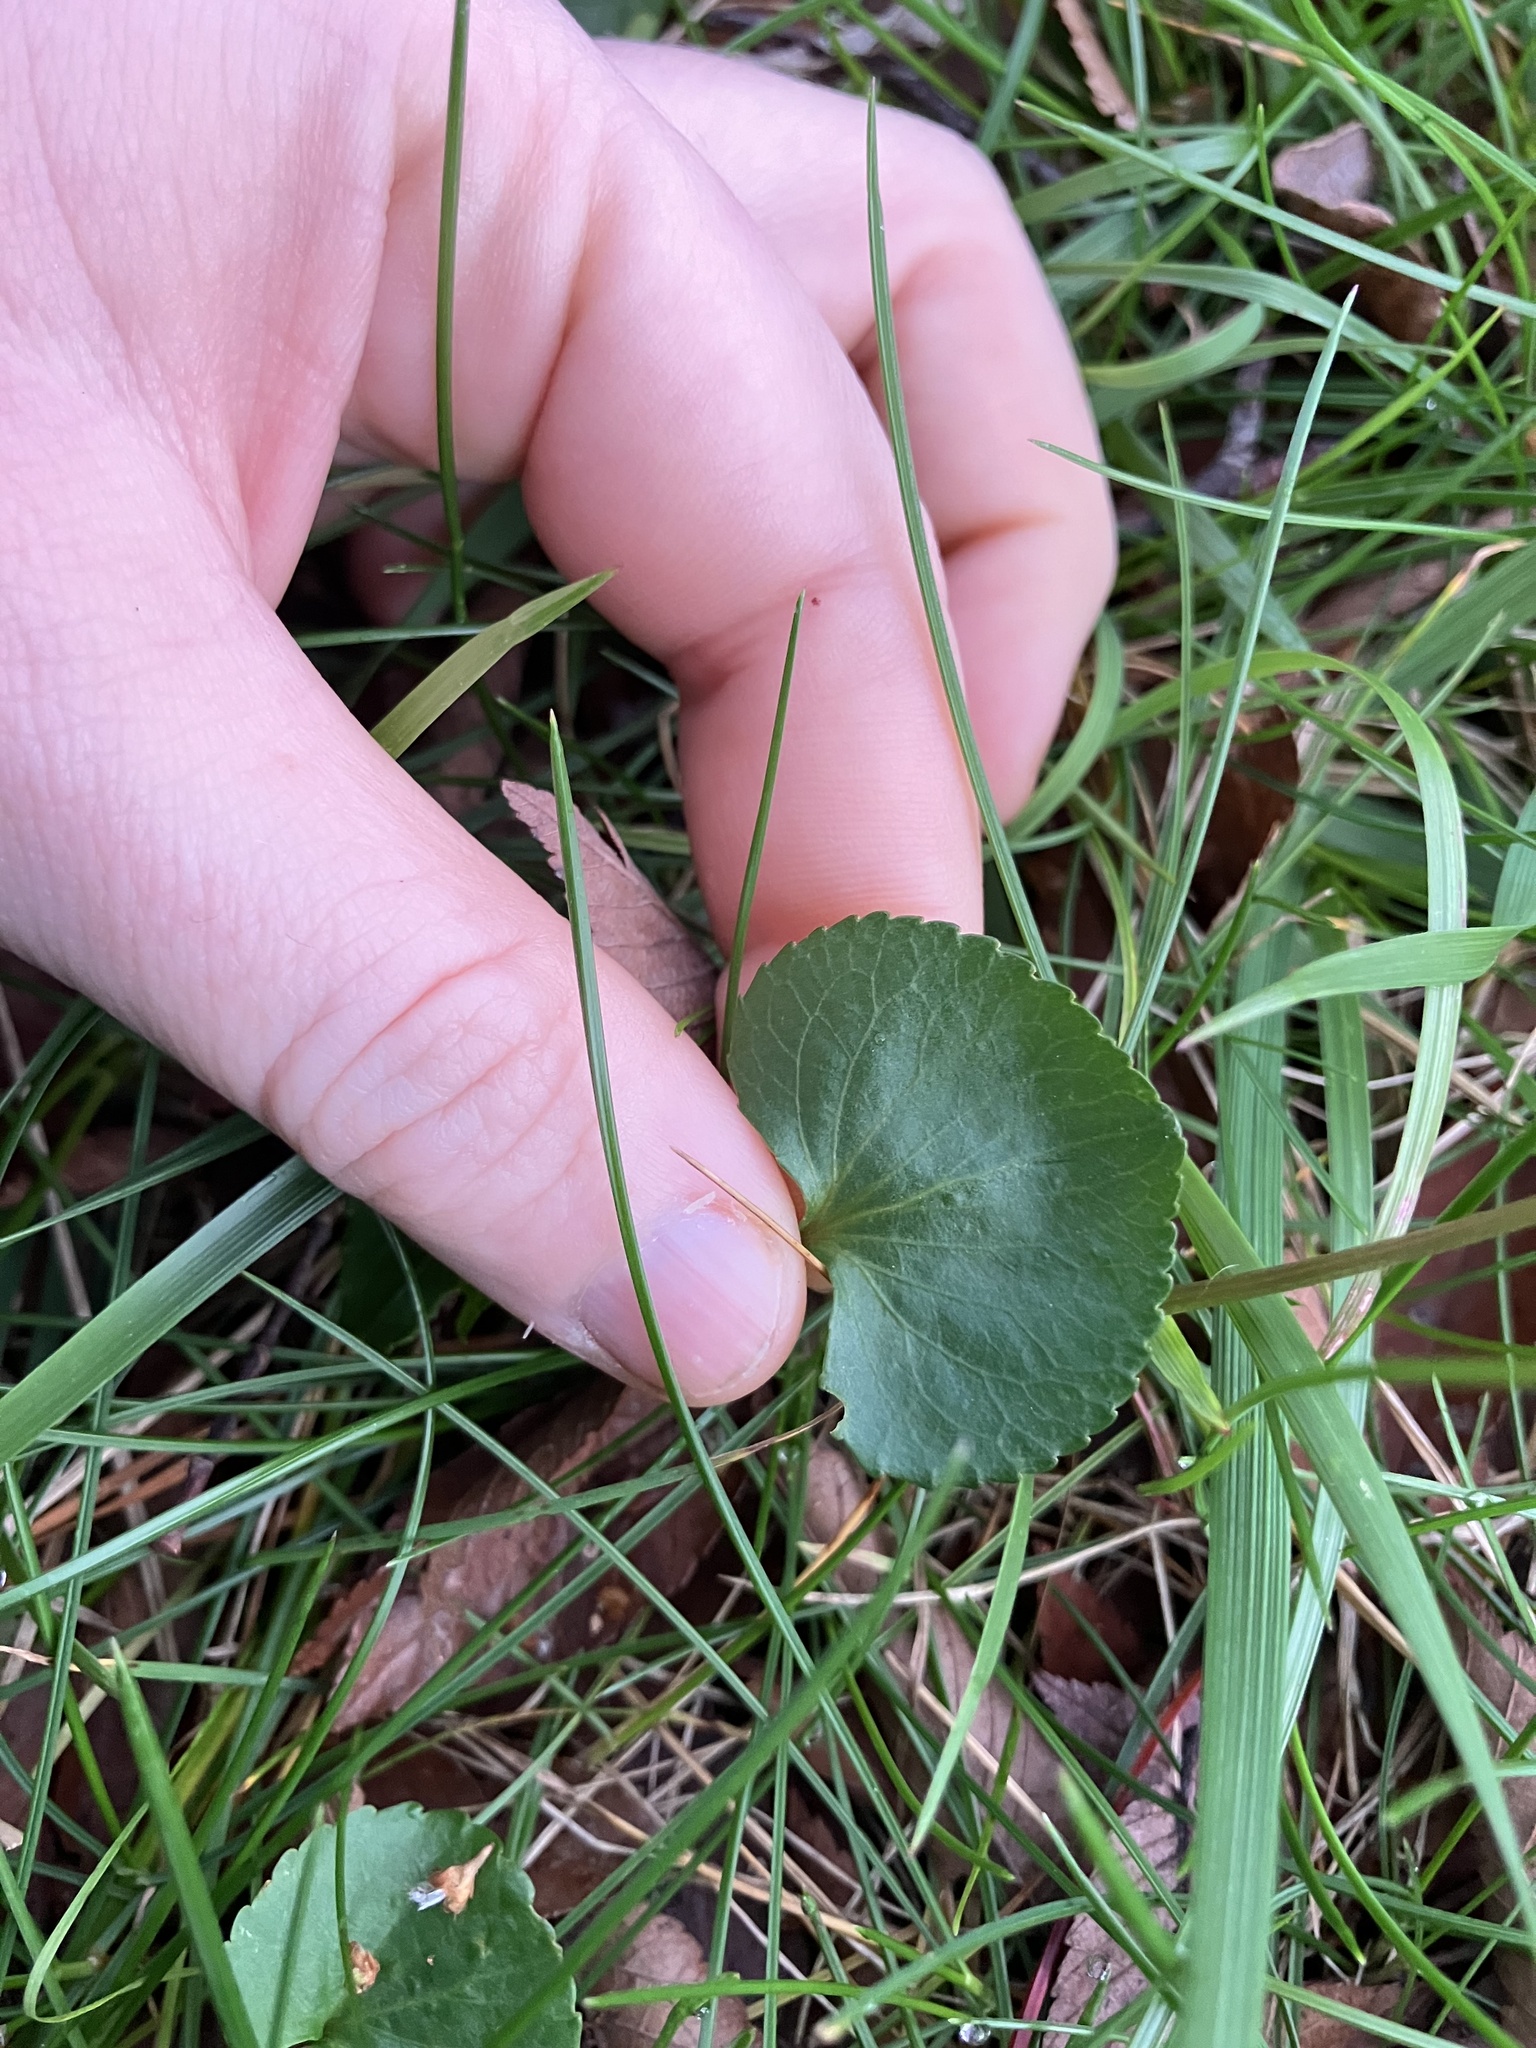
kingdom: Plantae
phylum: Tracheophyta
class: Magnoliopsida
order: Malpighiales
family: Violaceae
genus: Viola
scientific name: Viola communis
